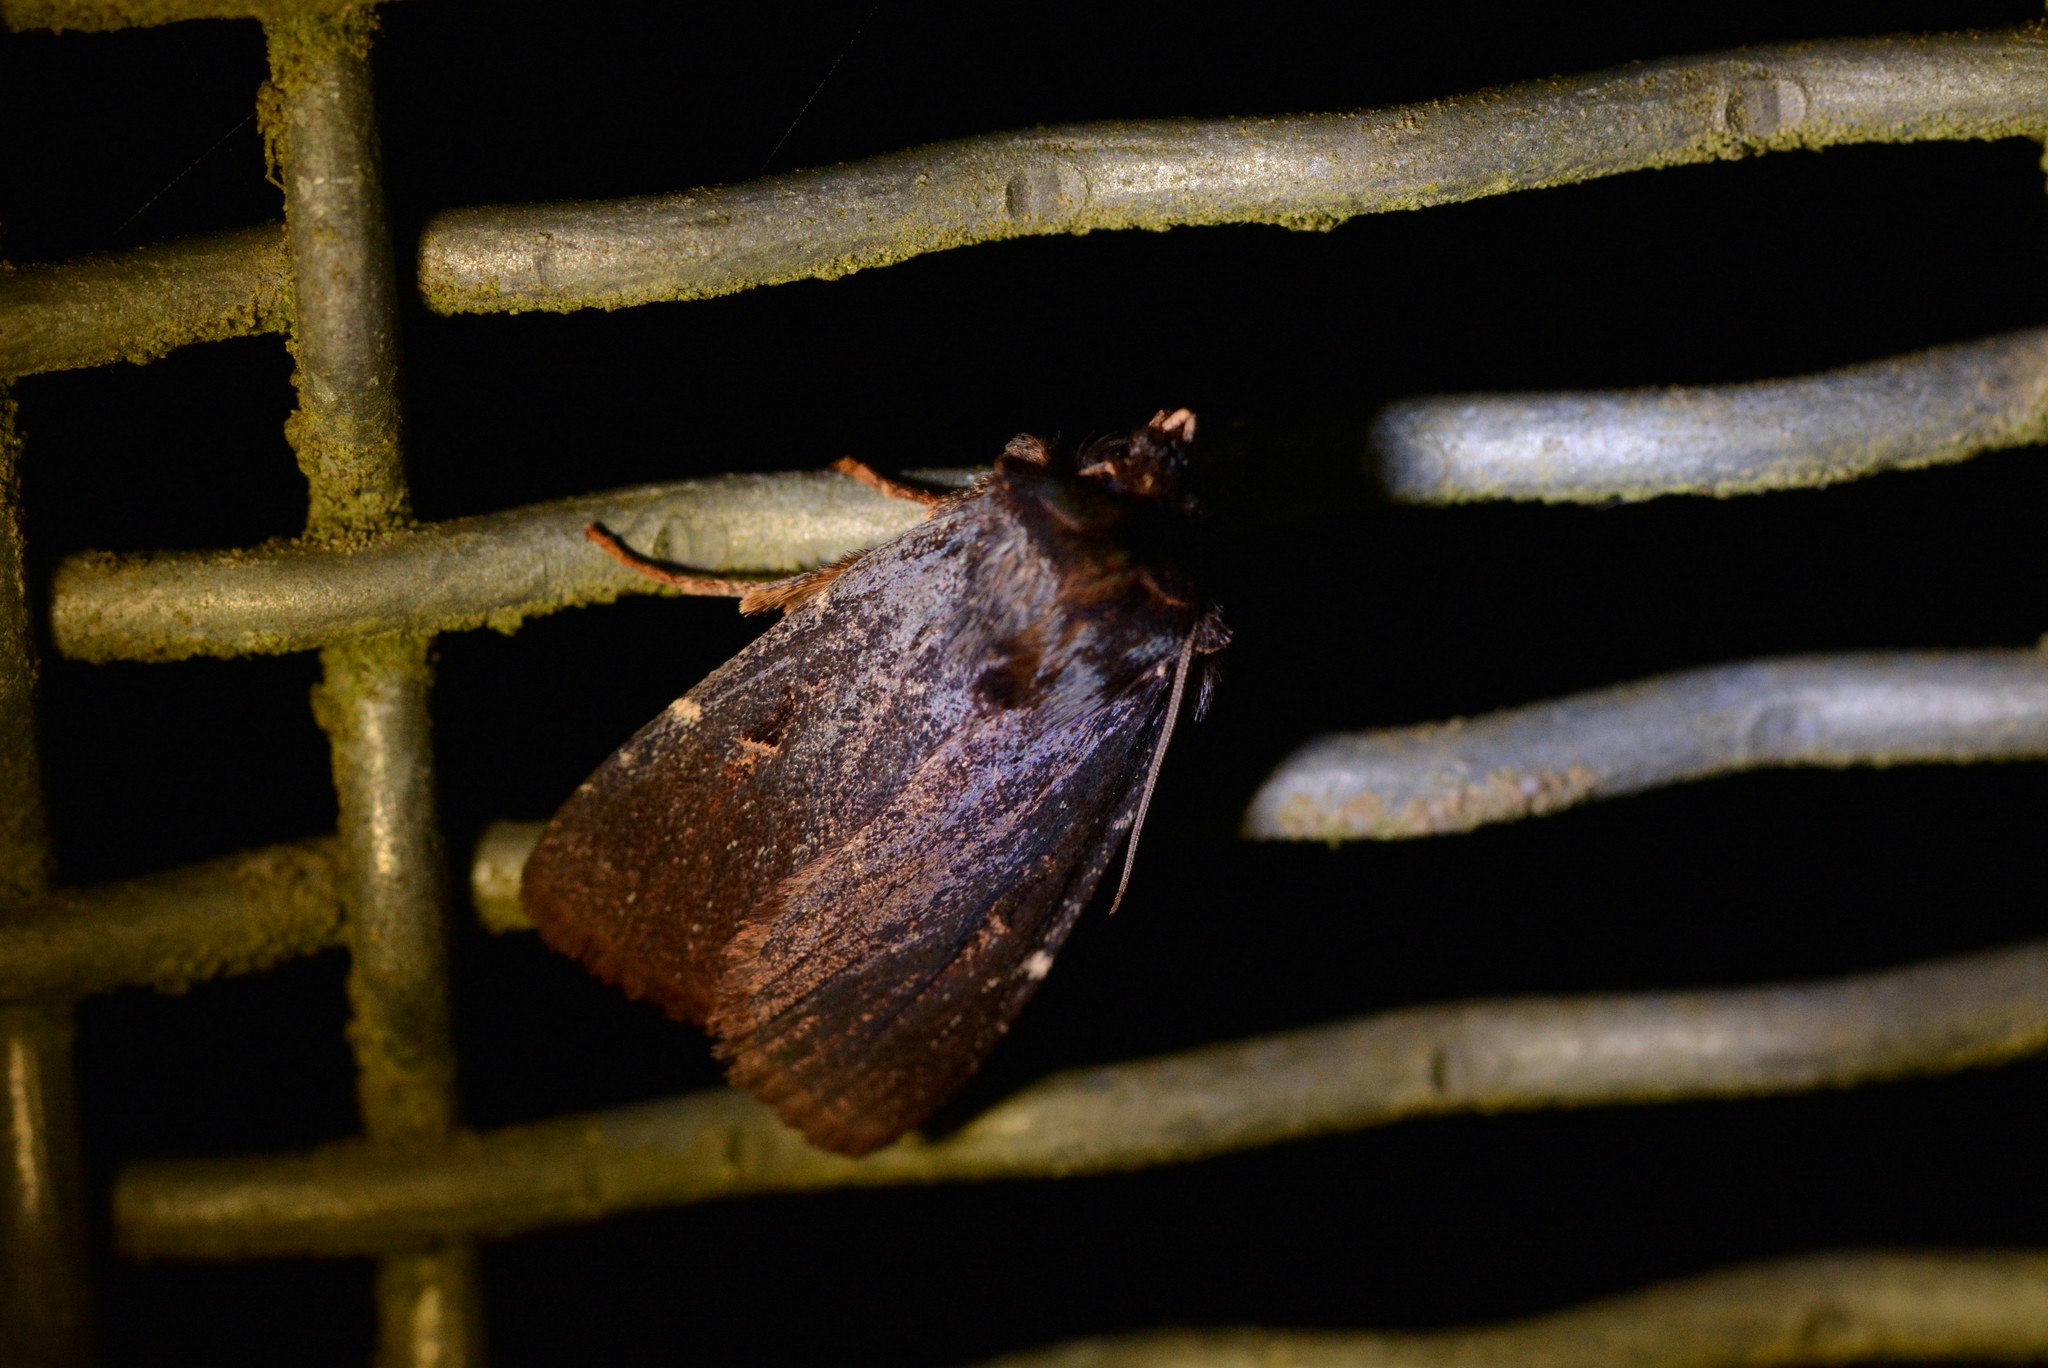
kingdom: Animalia
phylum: Arthropoda
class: Insecta
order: Lepidoptera
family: Noctuidae
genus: Austramathes
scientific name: Austramathes purpurea
